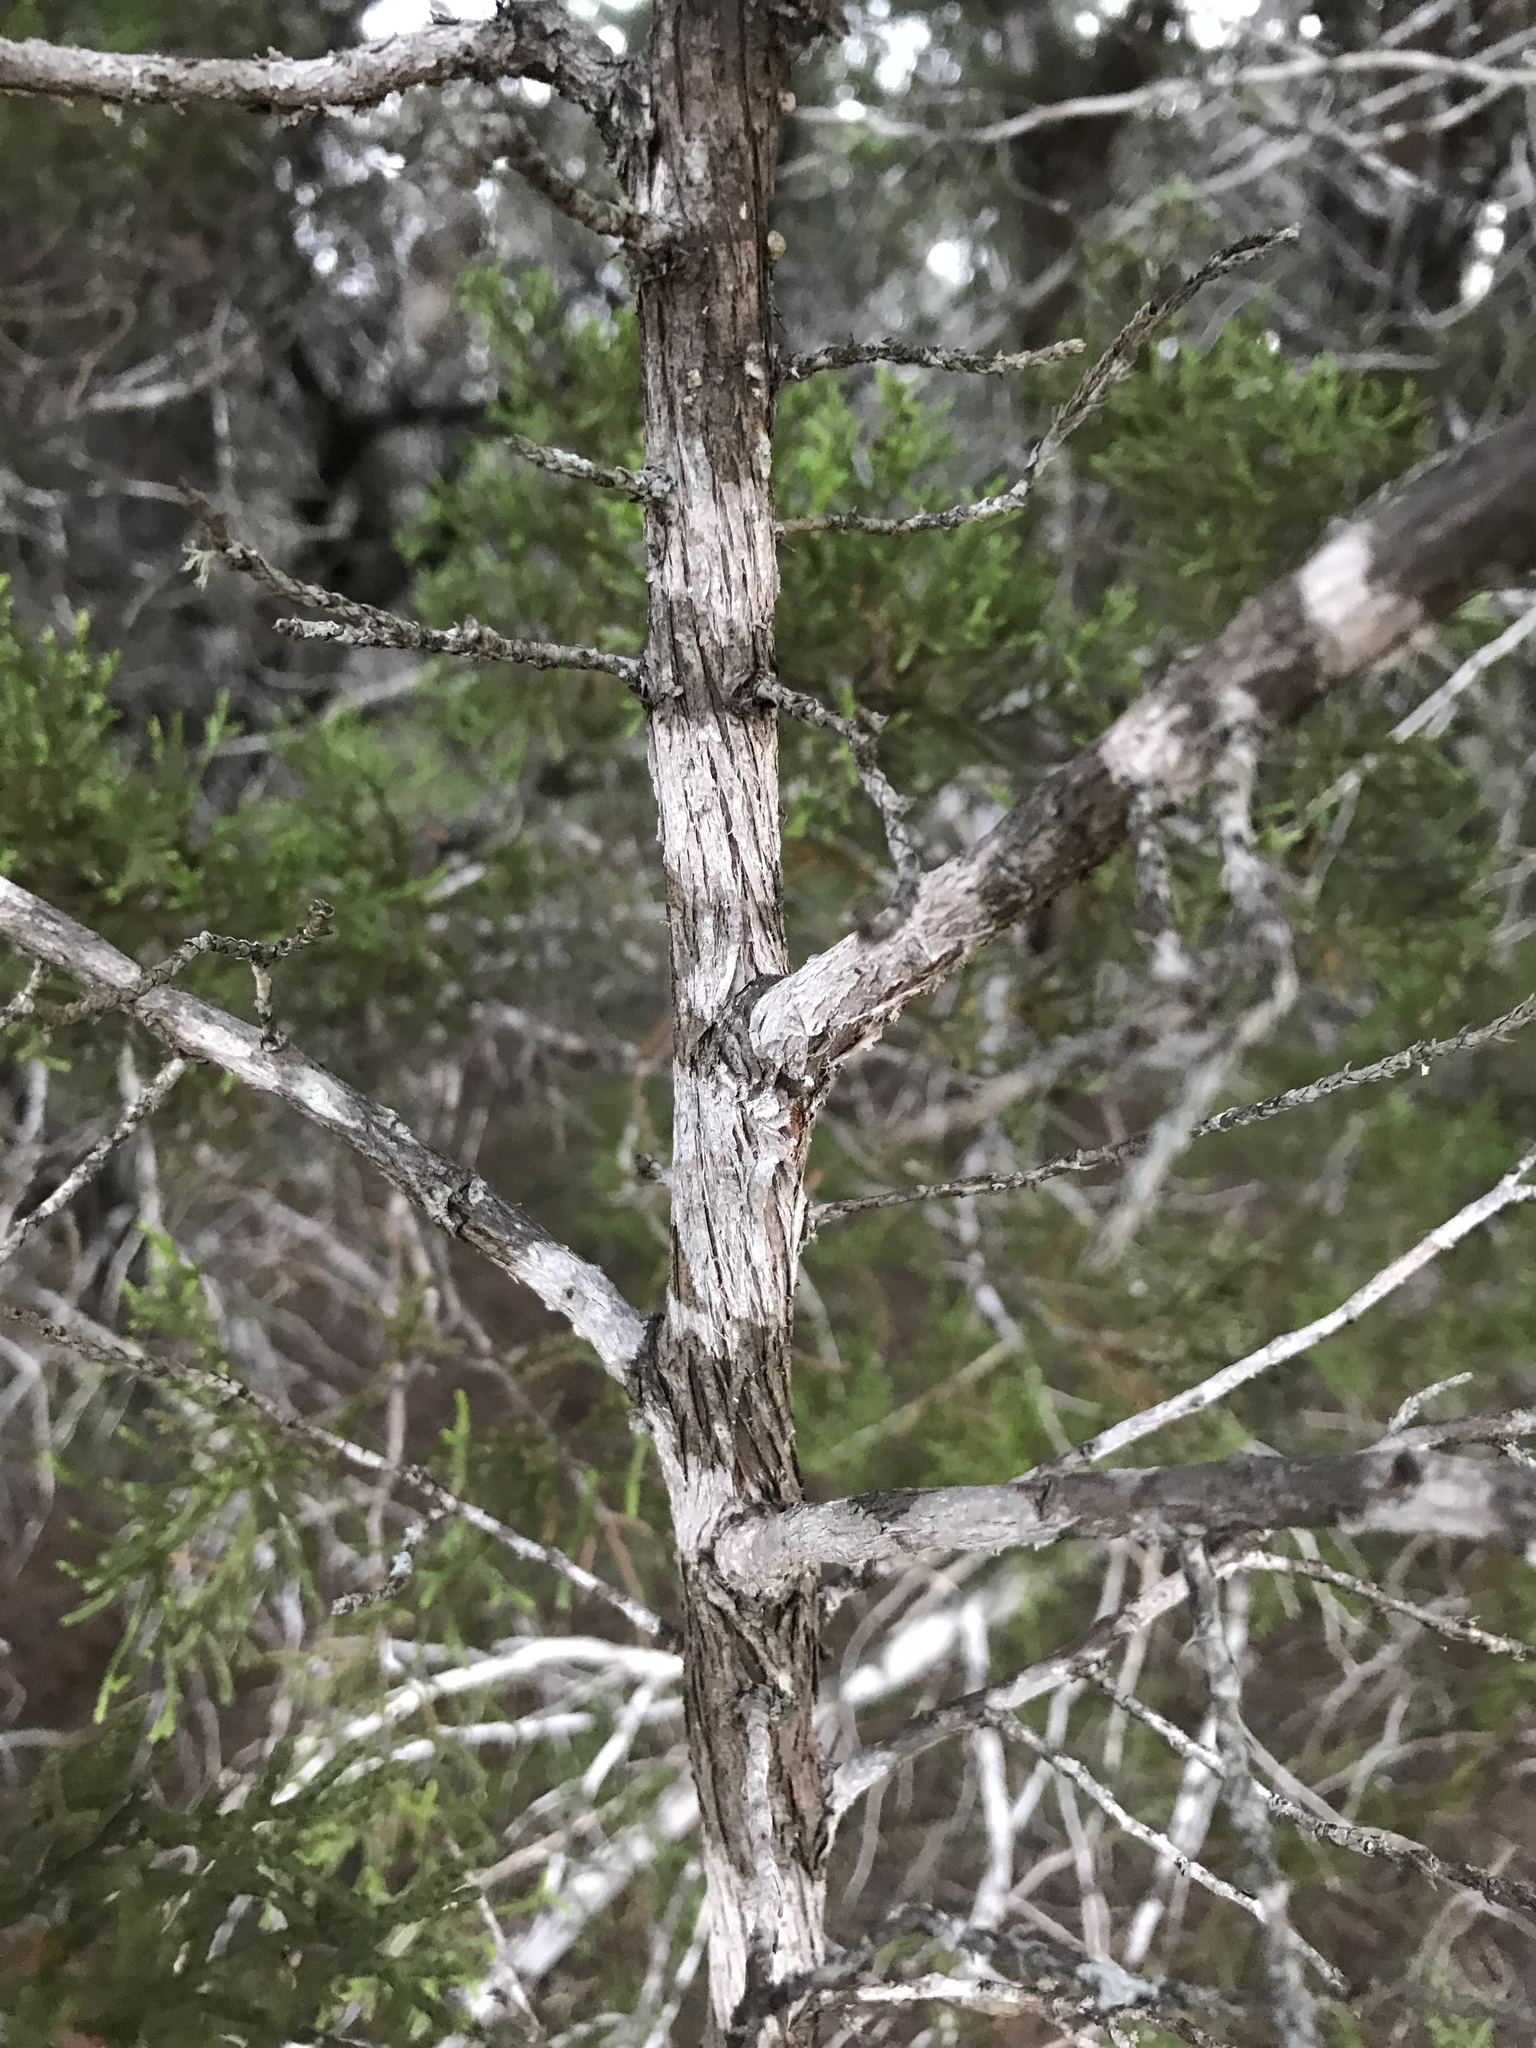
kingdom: Fungi
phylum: Ascomycota
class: Lecanoromycetes
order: Ostropales
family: Stictidaceae
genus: Robergea
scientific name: Robergea
